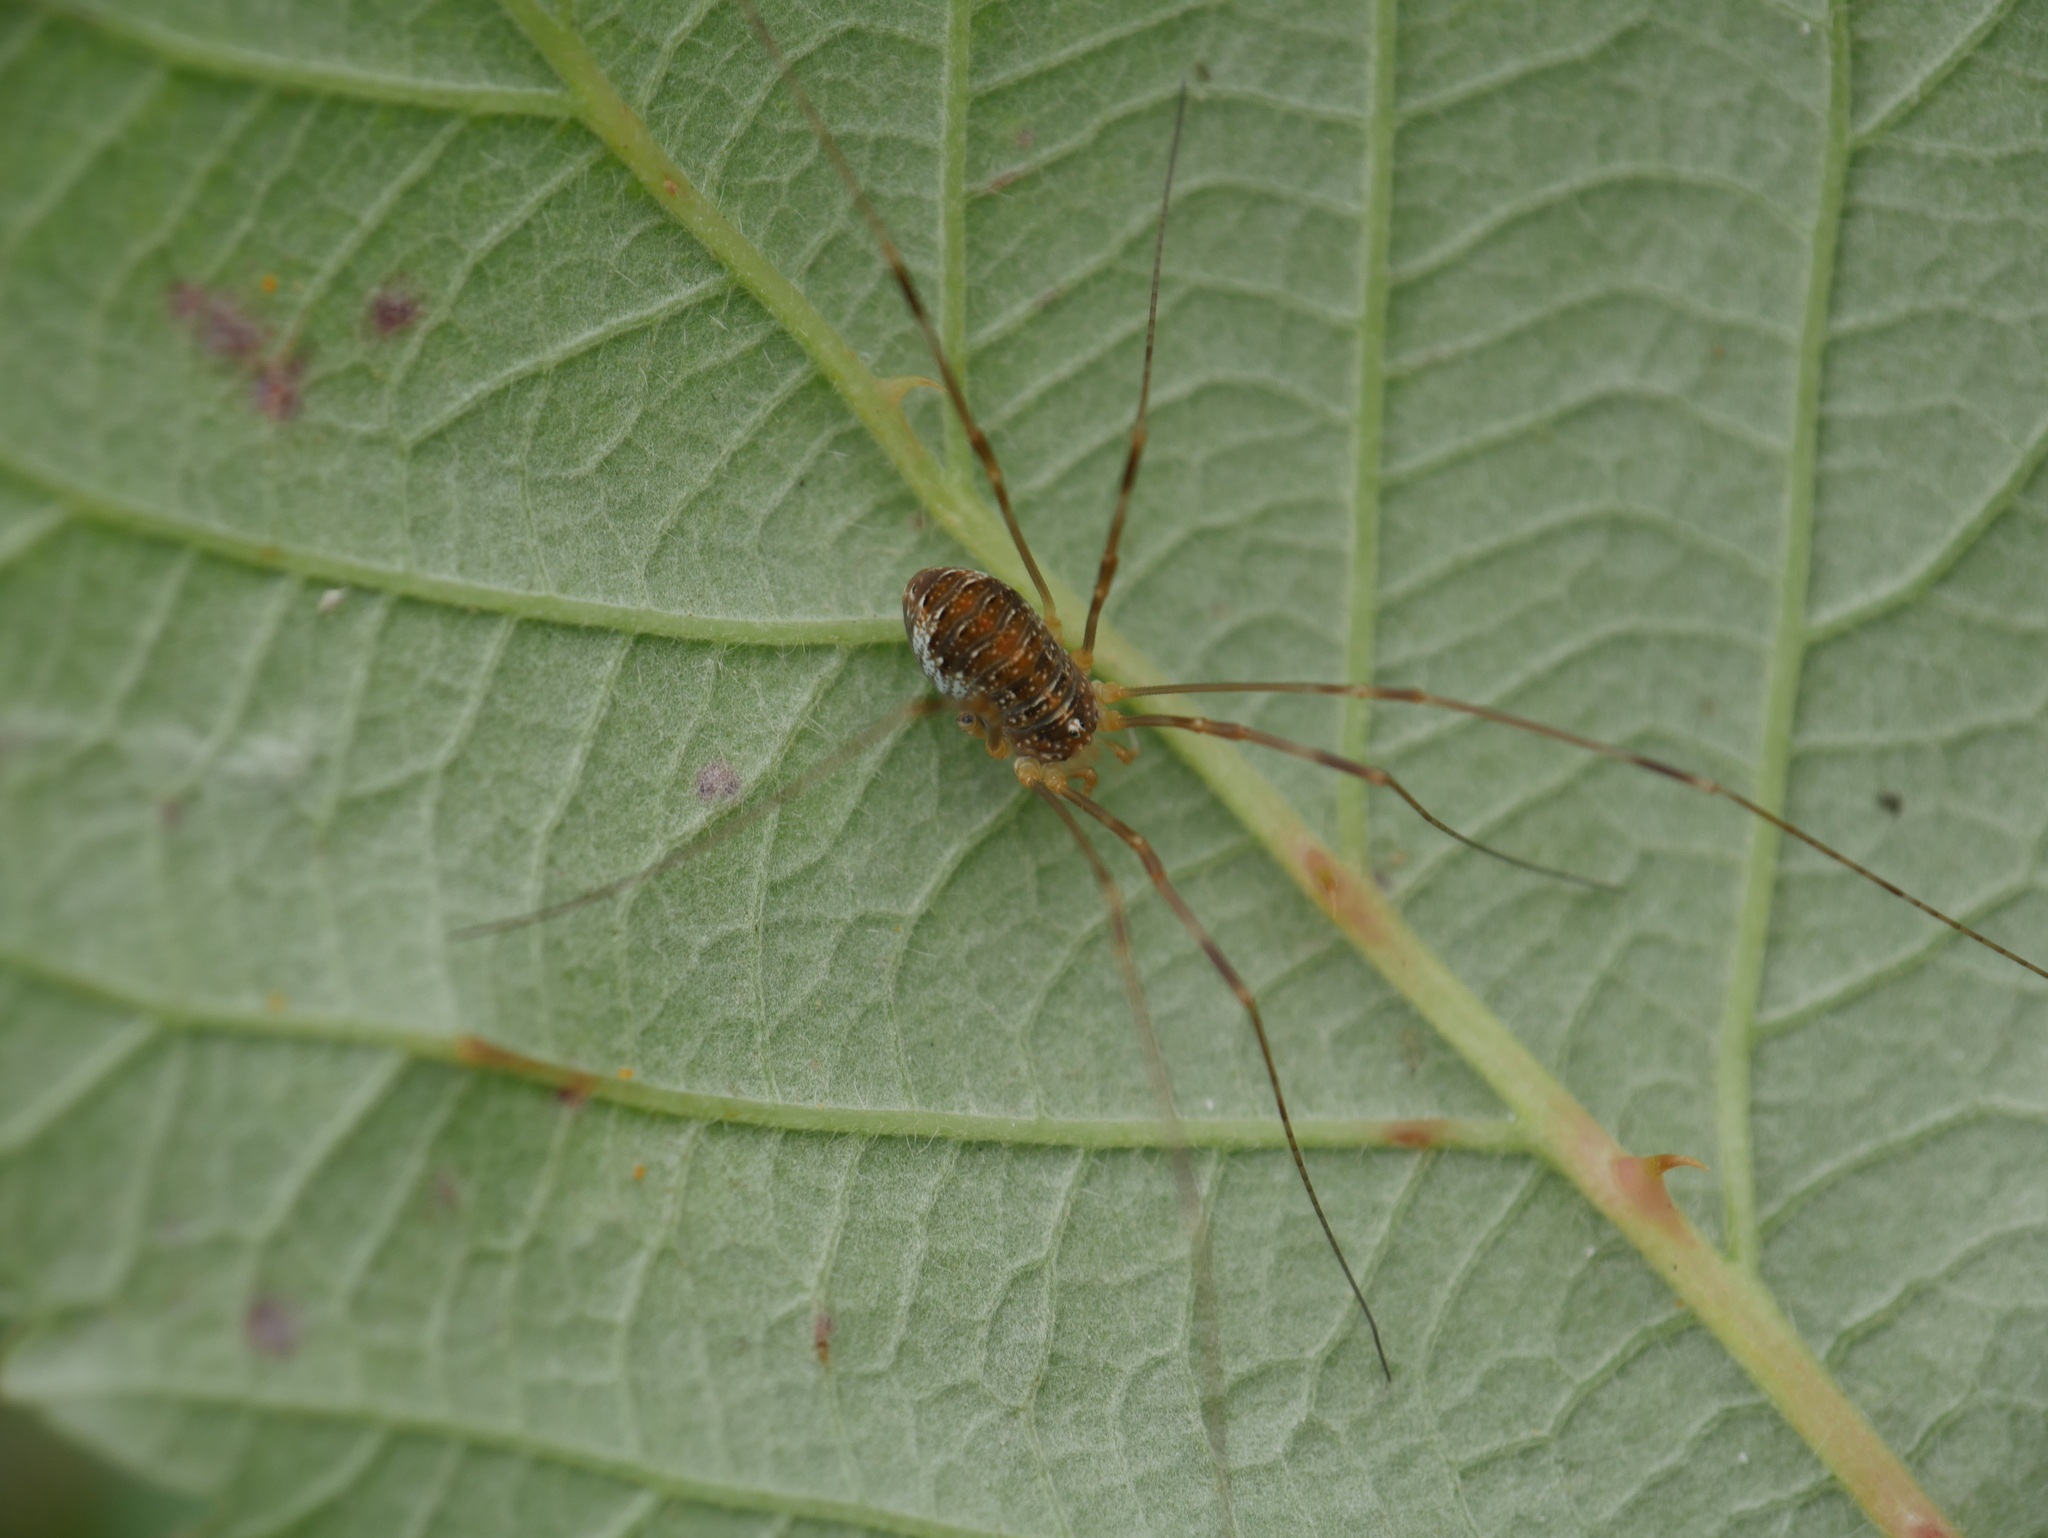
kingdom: Animalia
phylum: Arthropoda
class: Arachnida
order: Opiliones
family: Phalangiidae
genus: Opilio
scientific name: Opilio canestrinii
